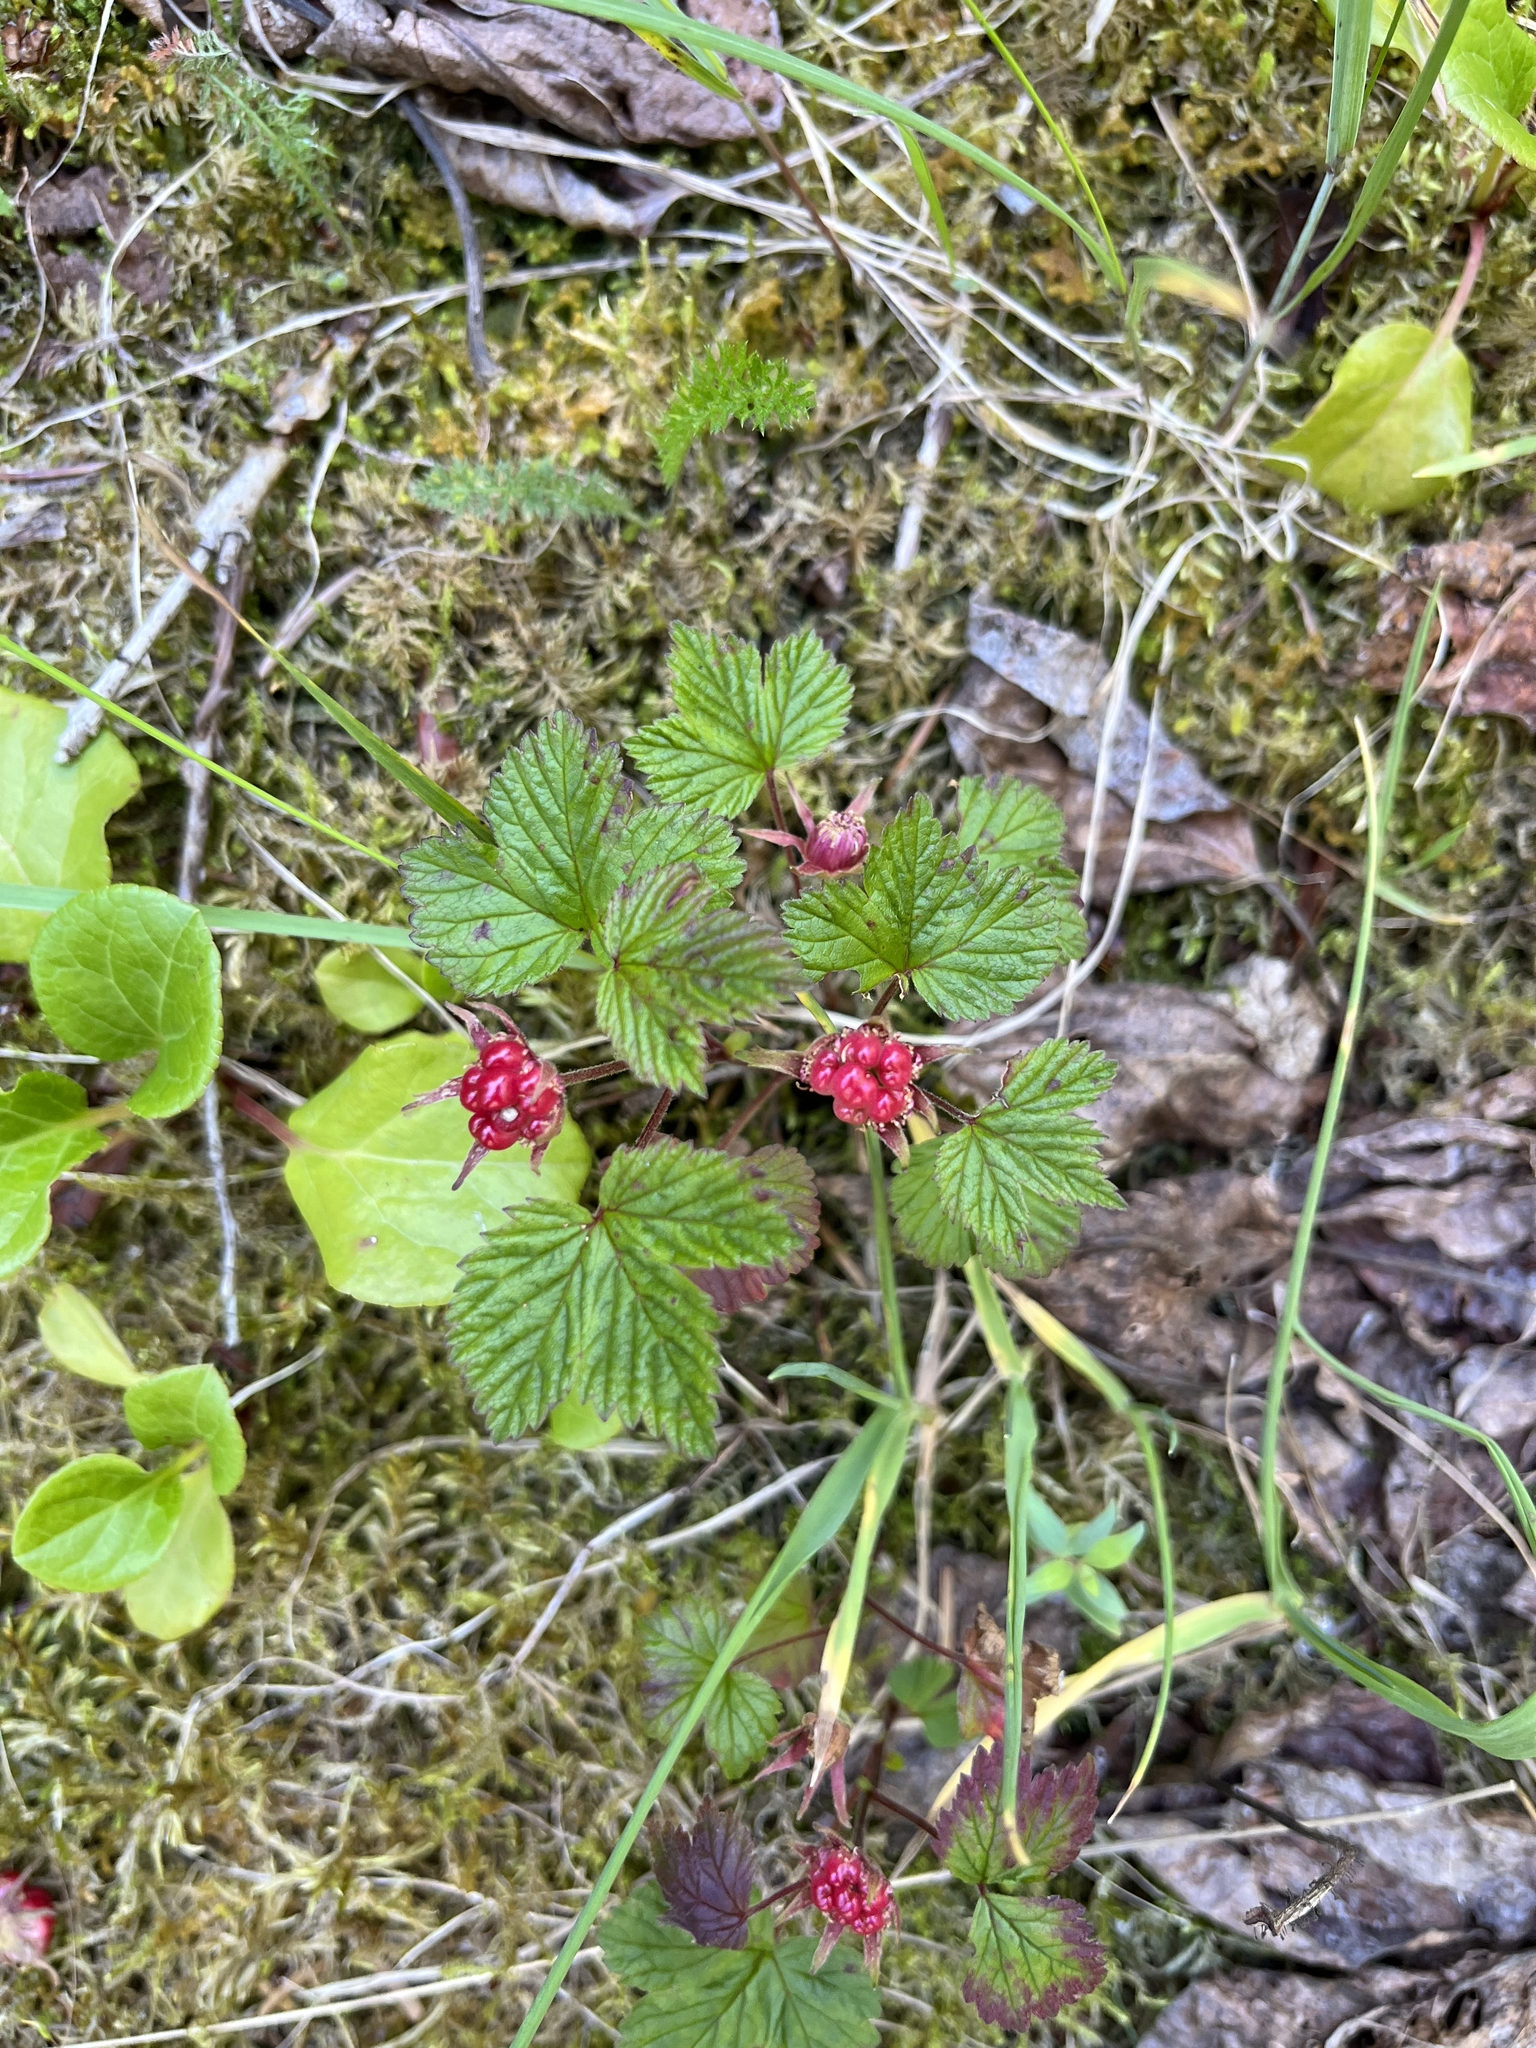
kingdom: Plantae
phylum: Tracheophyta
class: Magnoliopsida
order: Rosales
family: Rosaceae
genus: Rubus
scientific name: Rubus arcticus
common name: Arctic bramble
